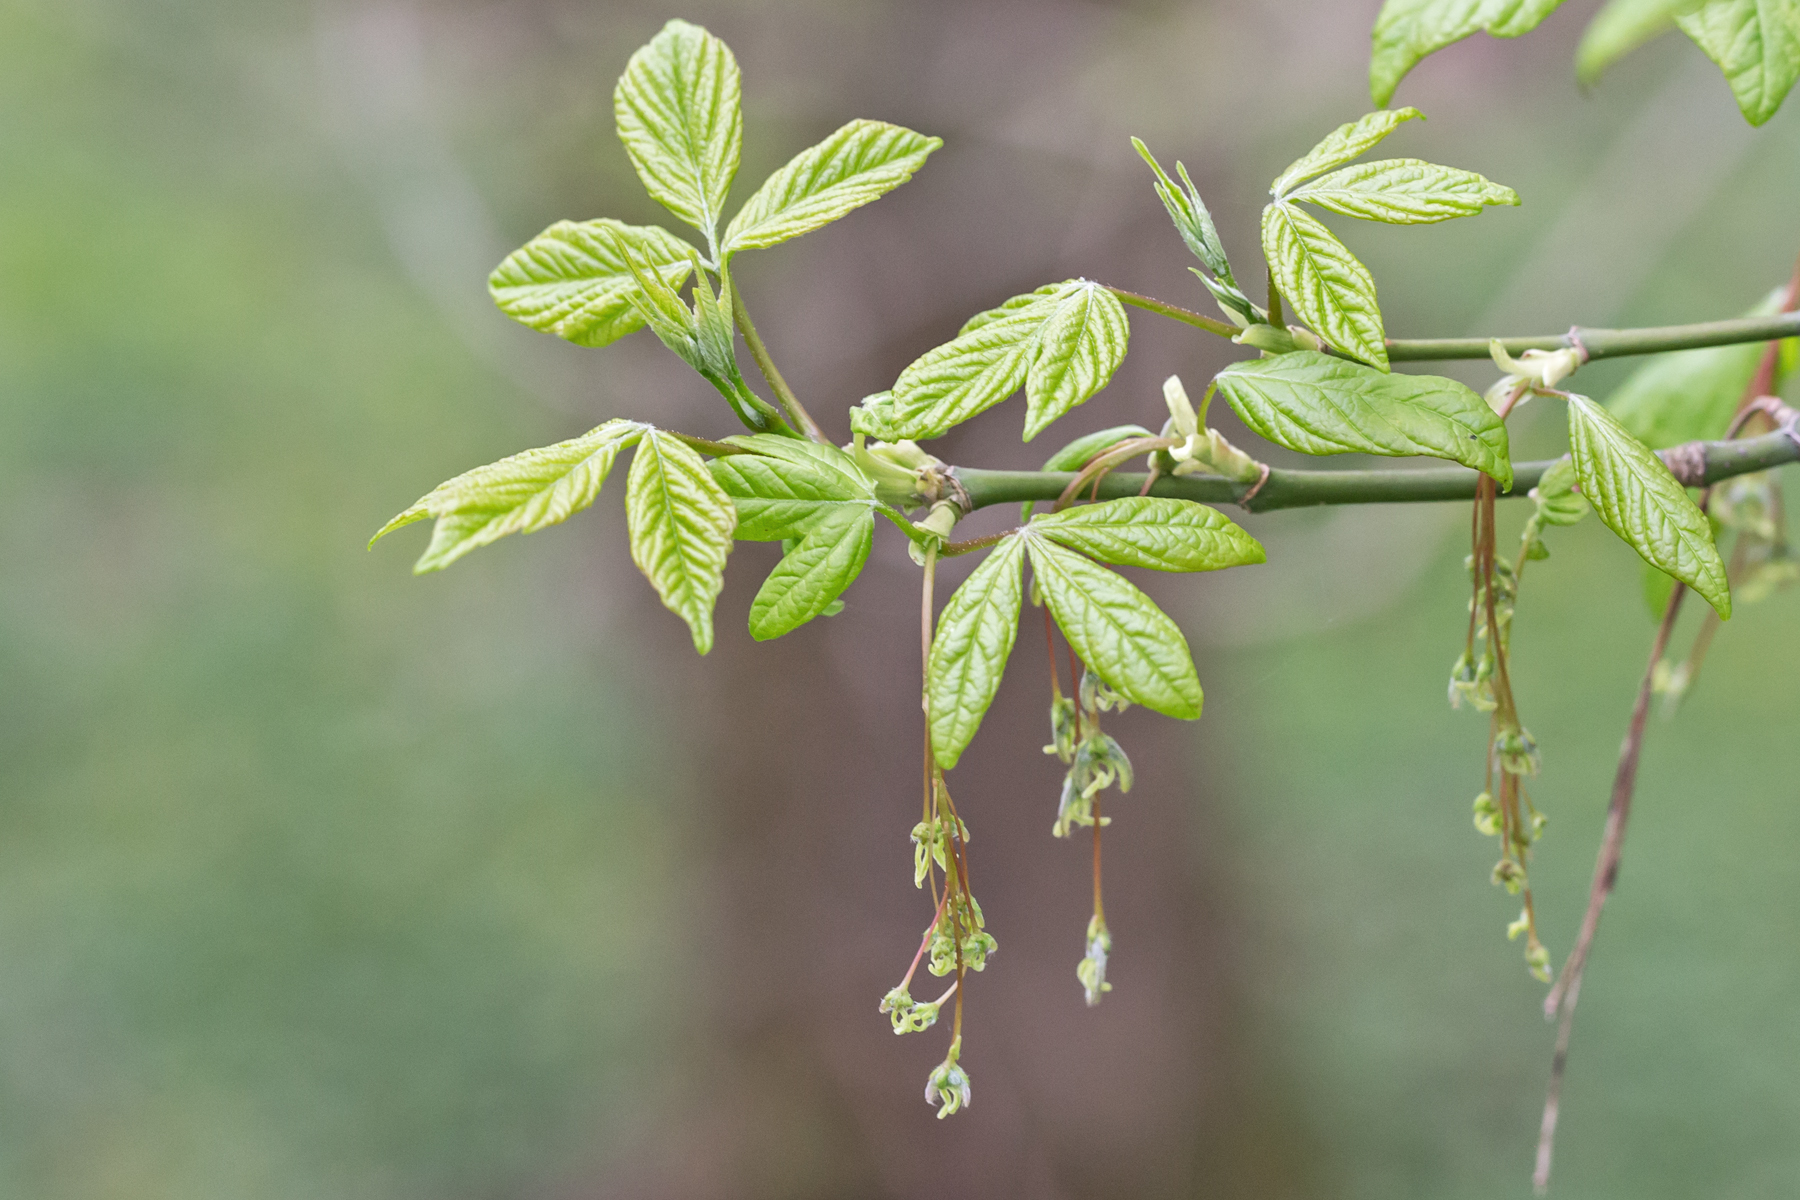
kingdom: Plantae
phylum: Tracheophyta
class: Magnoliopsida
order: Sapindales
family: Sapindaceae
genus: Acer
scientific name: Acer negundo
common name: Ashleaf maple
